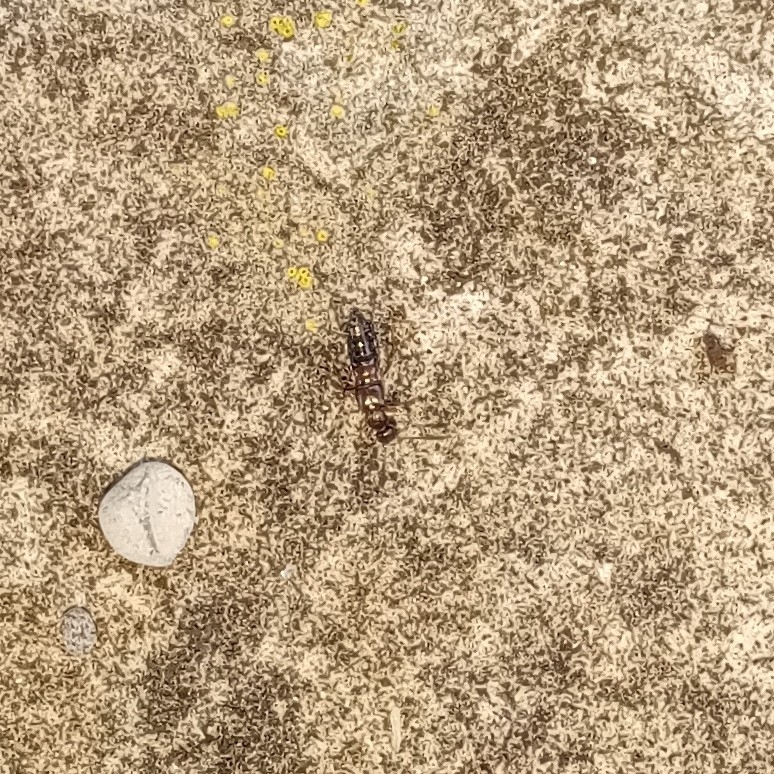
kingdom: Animalia
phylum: Arthropoda
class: Insecta
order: Coleoptera
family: Staphylinidae
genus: Meronera
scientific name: Meronera venustula
